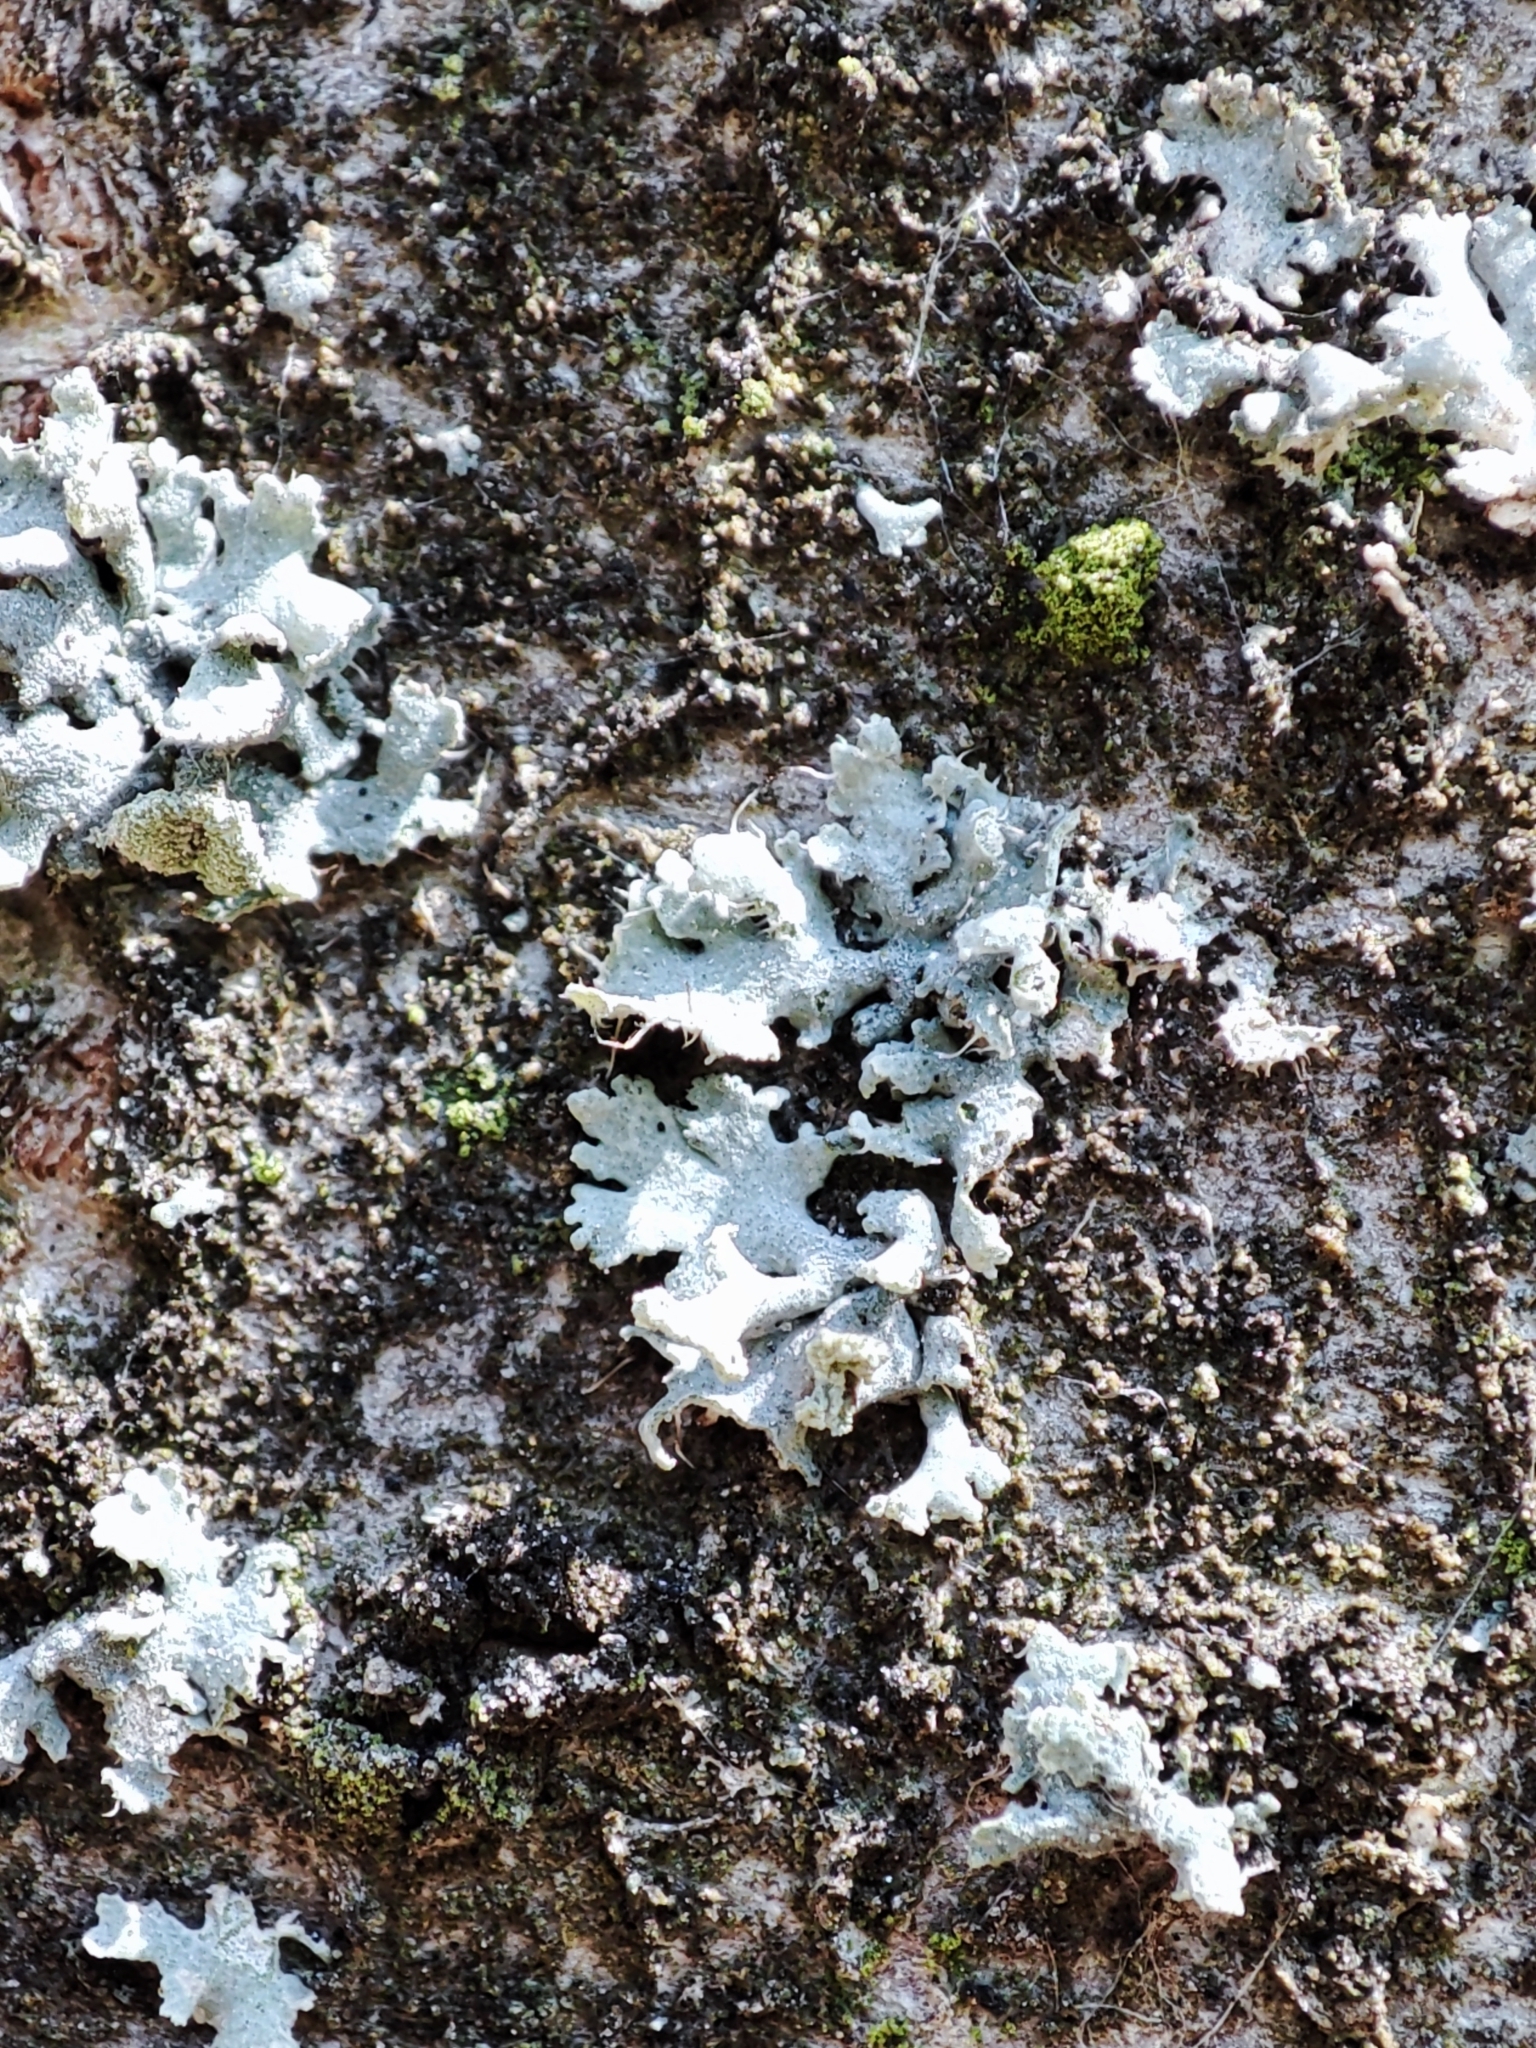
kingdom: Fungi
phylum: Ascomycota
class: Lecanoromycetes
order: Caliciales
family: Physciaceae
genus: Physcia
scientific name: Physcia dubia
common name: Powder-tipped rosette lichen
